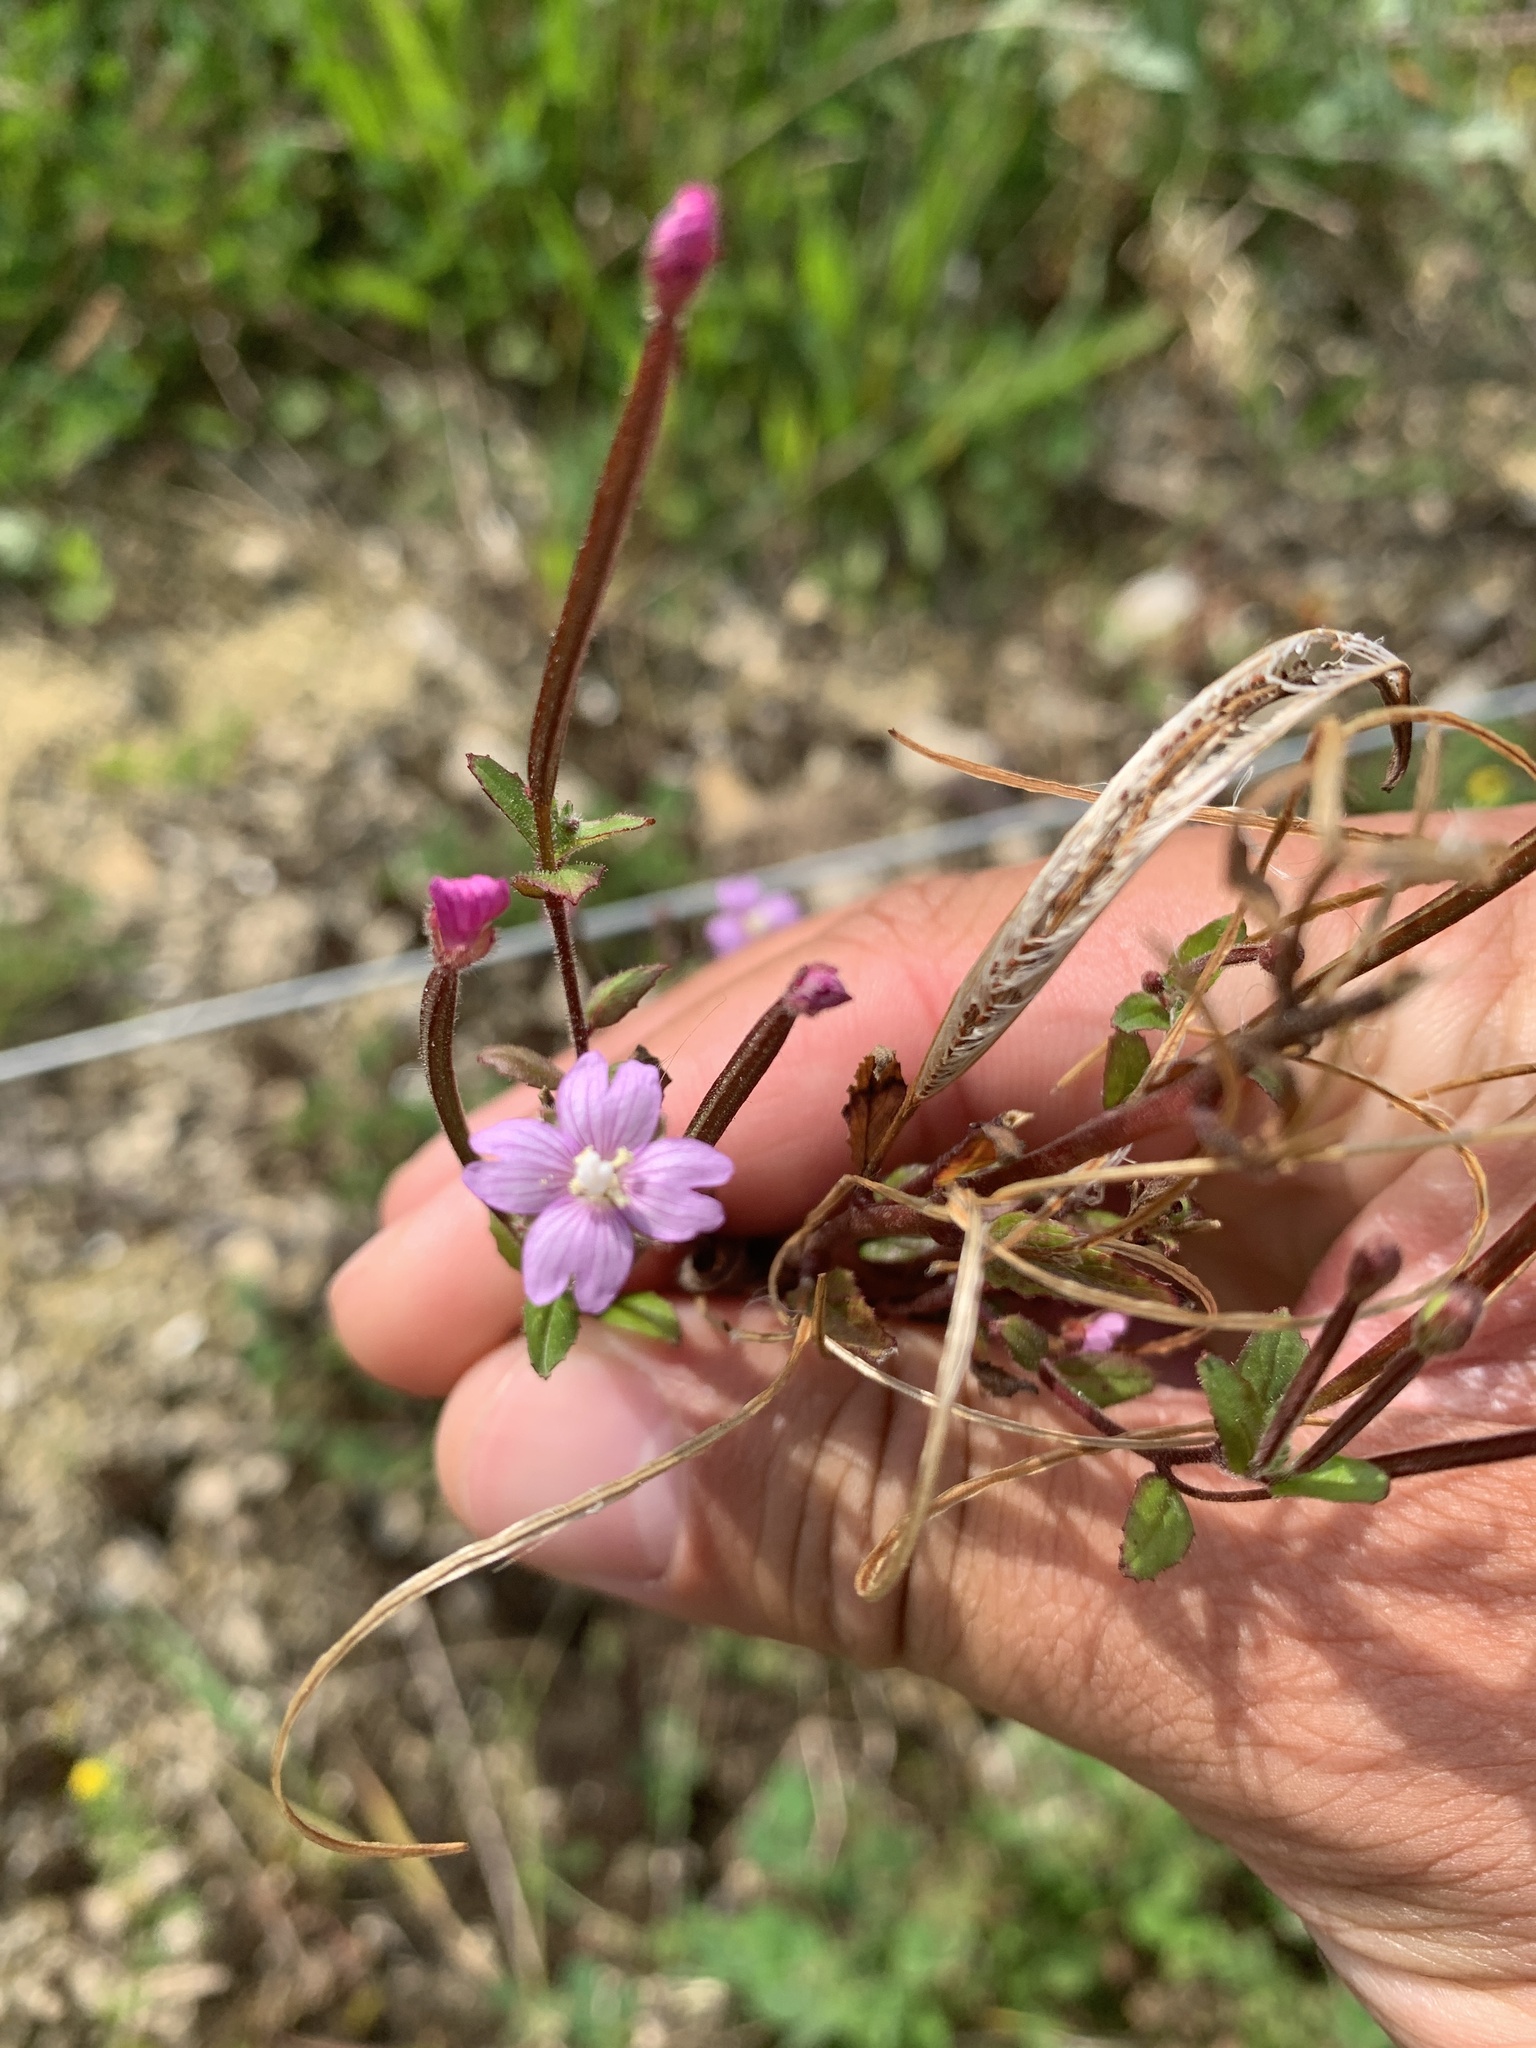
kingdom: Plantae
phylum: Tracheophyta
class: Magnoliopsida
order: Myrtales
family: Onagraceae
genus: Epilobium
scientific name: Epilobium parviflorum
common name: Hoary willowherb
